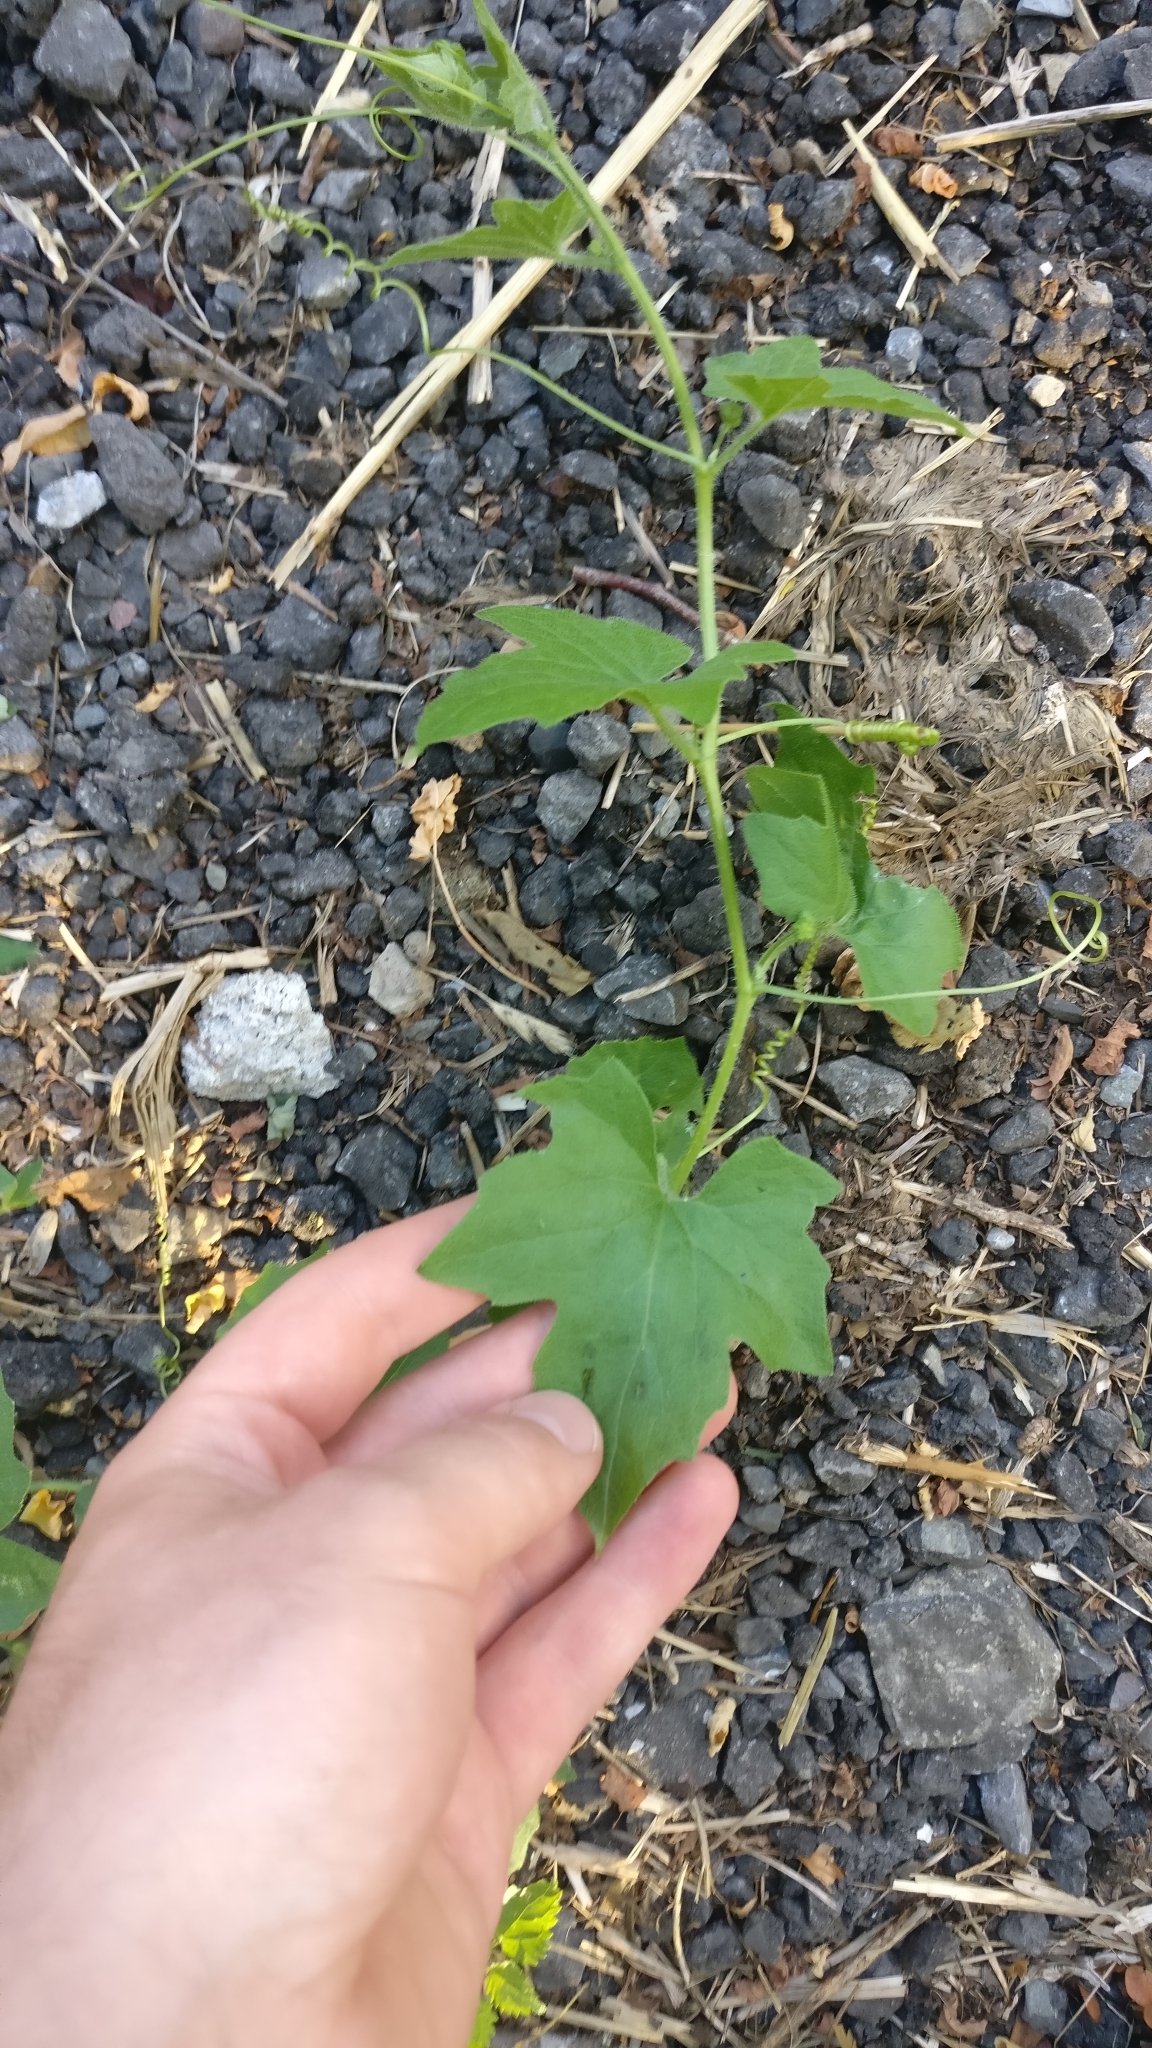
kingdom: Plantae
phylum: Tracheophyta
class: Magnoliopsida
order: Cucurbitales
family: Cucurbitaceae
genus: Bryonia
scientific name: Bryonia cretica
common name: Cretan bryony
